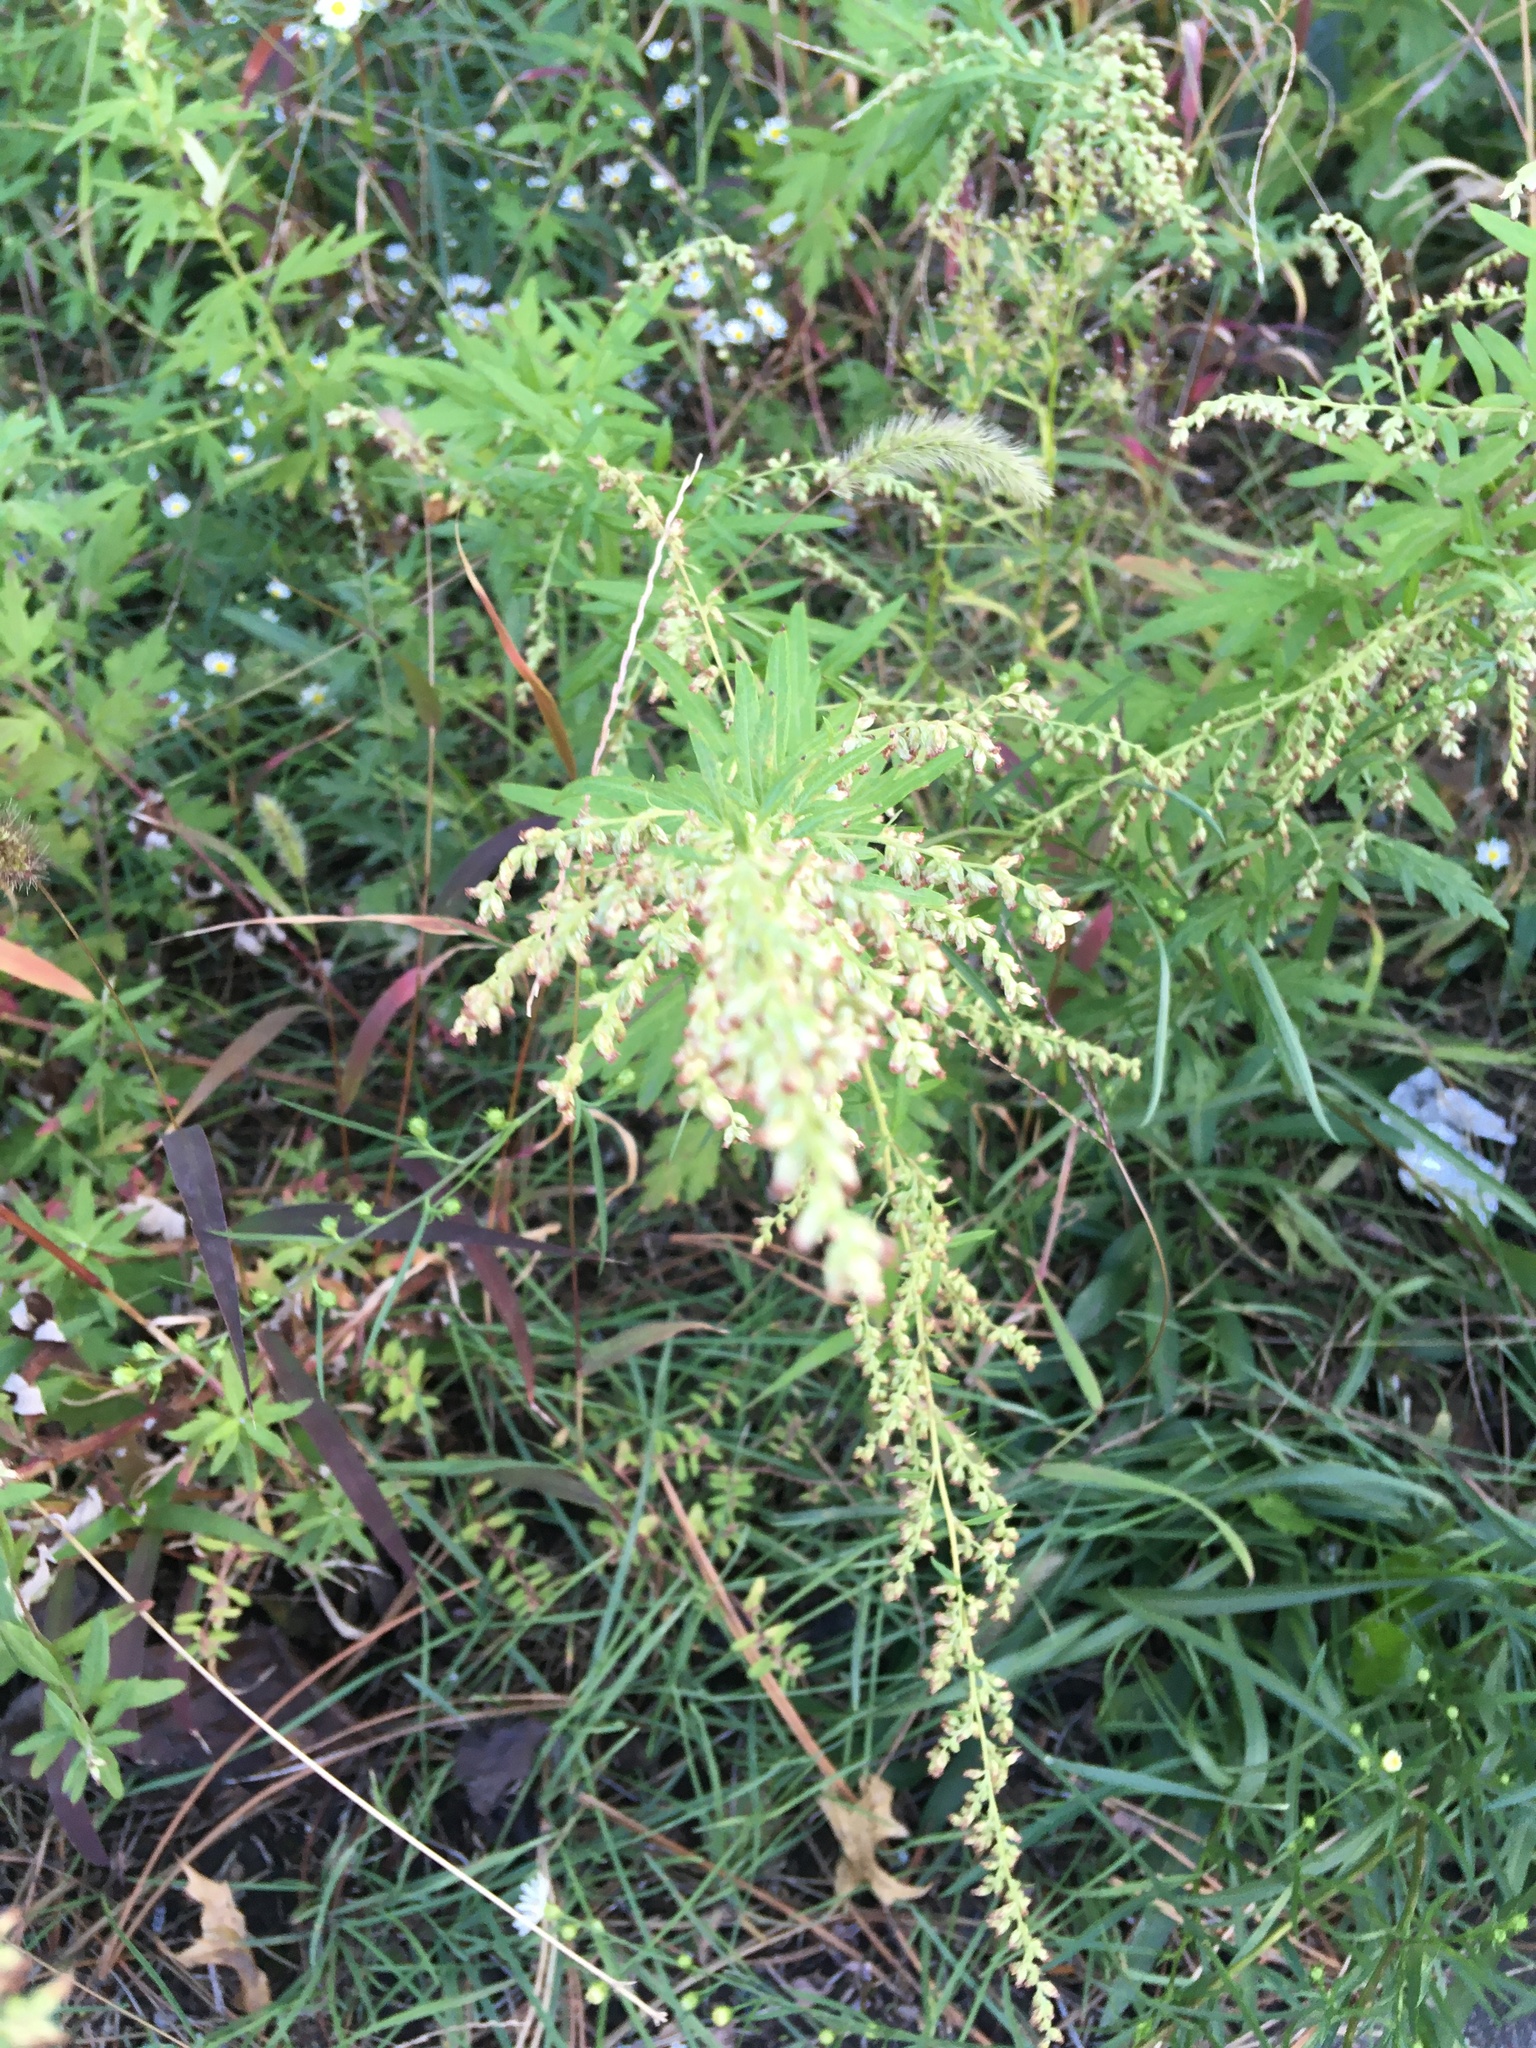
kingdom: Plantae
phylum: Tracheophyta
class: Magnoliopsida
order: Asterales
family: Asteraceae
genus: Artemisia
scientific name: Artemisia vulgaris
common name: Mugwort
